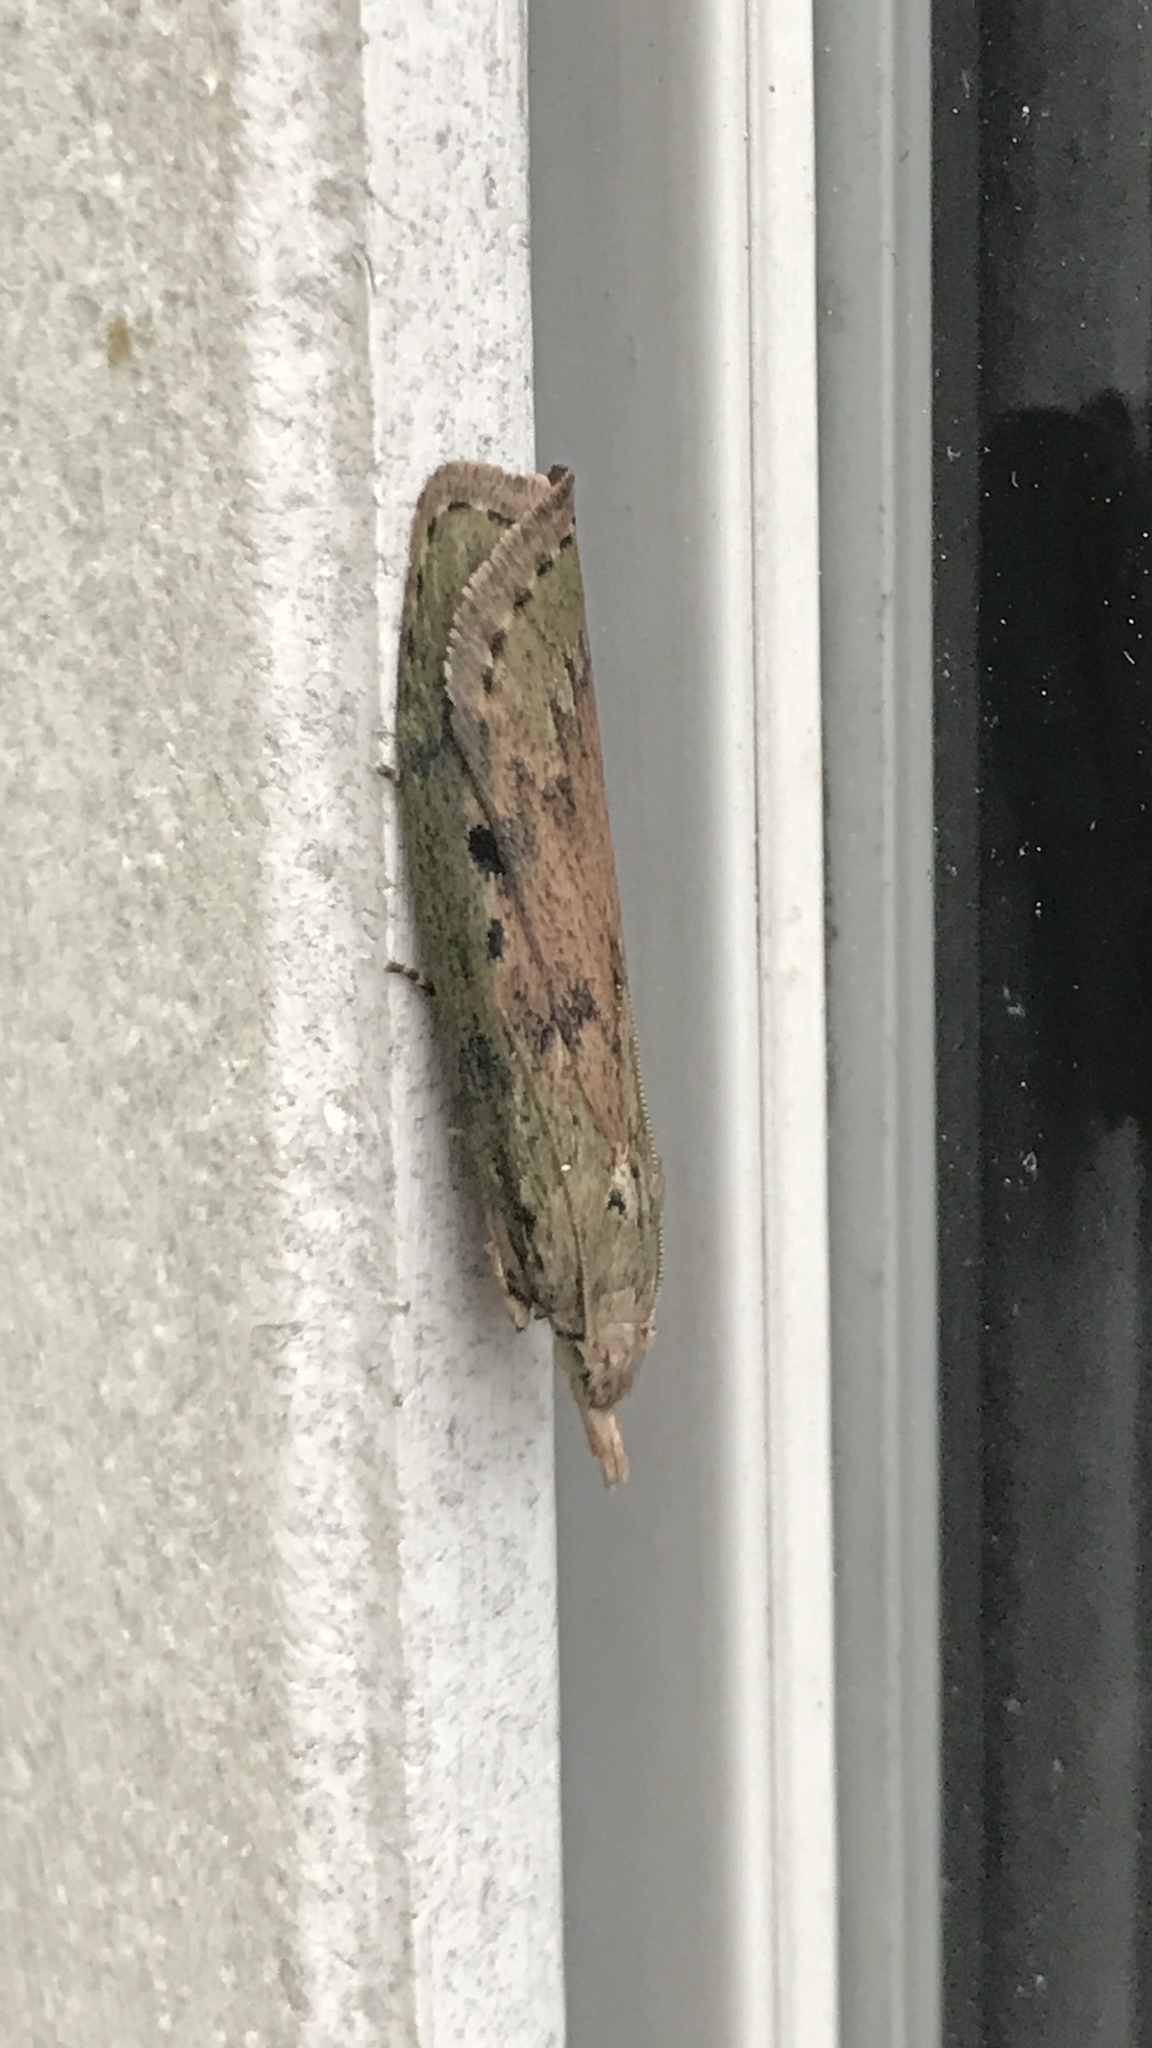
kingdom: Animalia
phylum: Arthropoda
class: Insecta
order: Lepidoptera
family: Pyralidae
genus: Aphomia
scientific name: Aphomia sociella
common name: Bee moth
